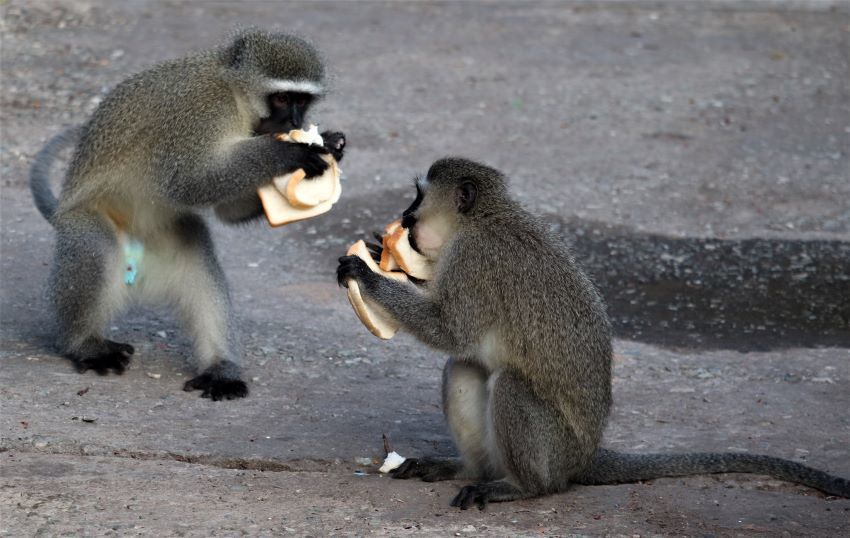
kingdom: Animalia
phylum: Chordata
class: Mammalia
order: Primates
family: Cercopithecidae
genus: Chlorocebus
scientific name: Chlorocebus pygerythrus
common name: Vervet monkey
